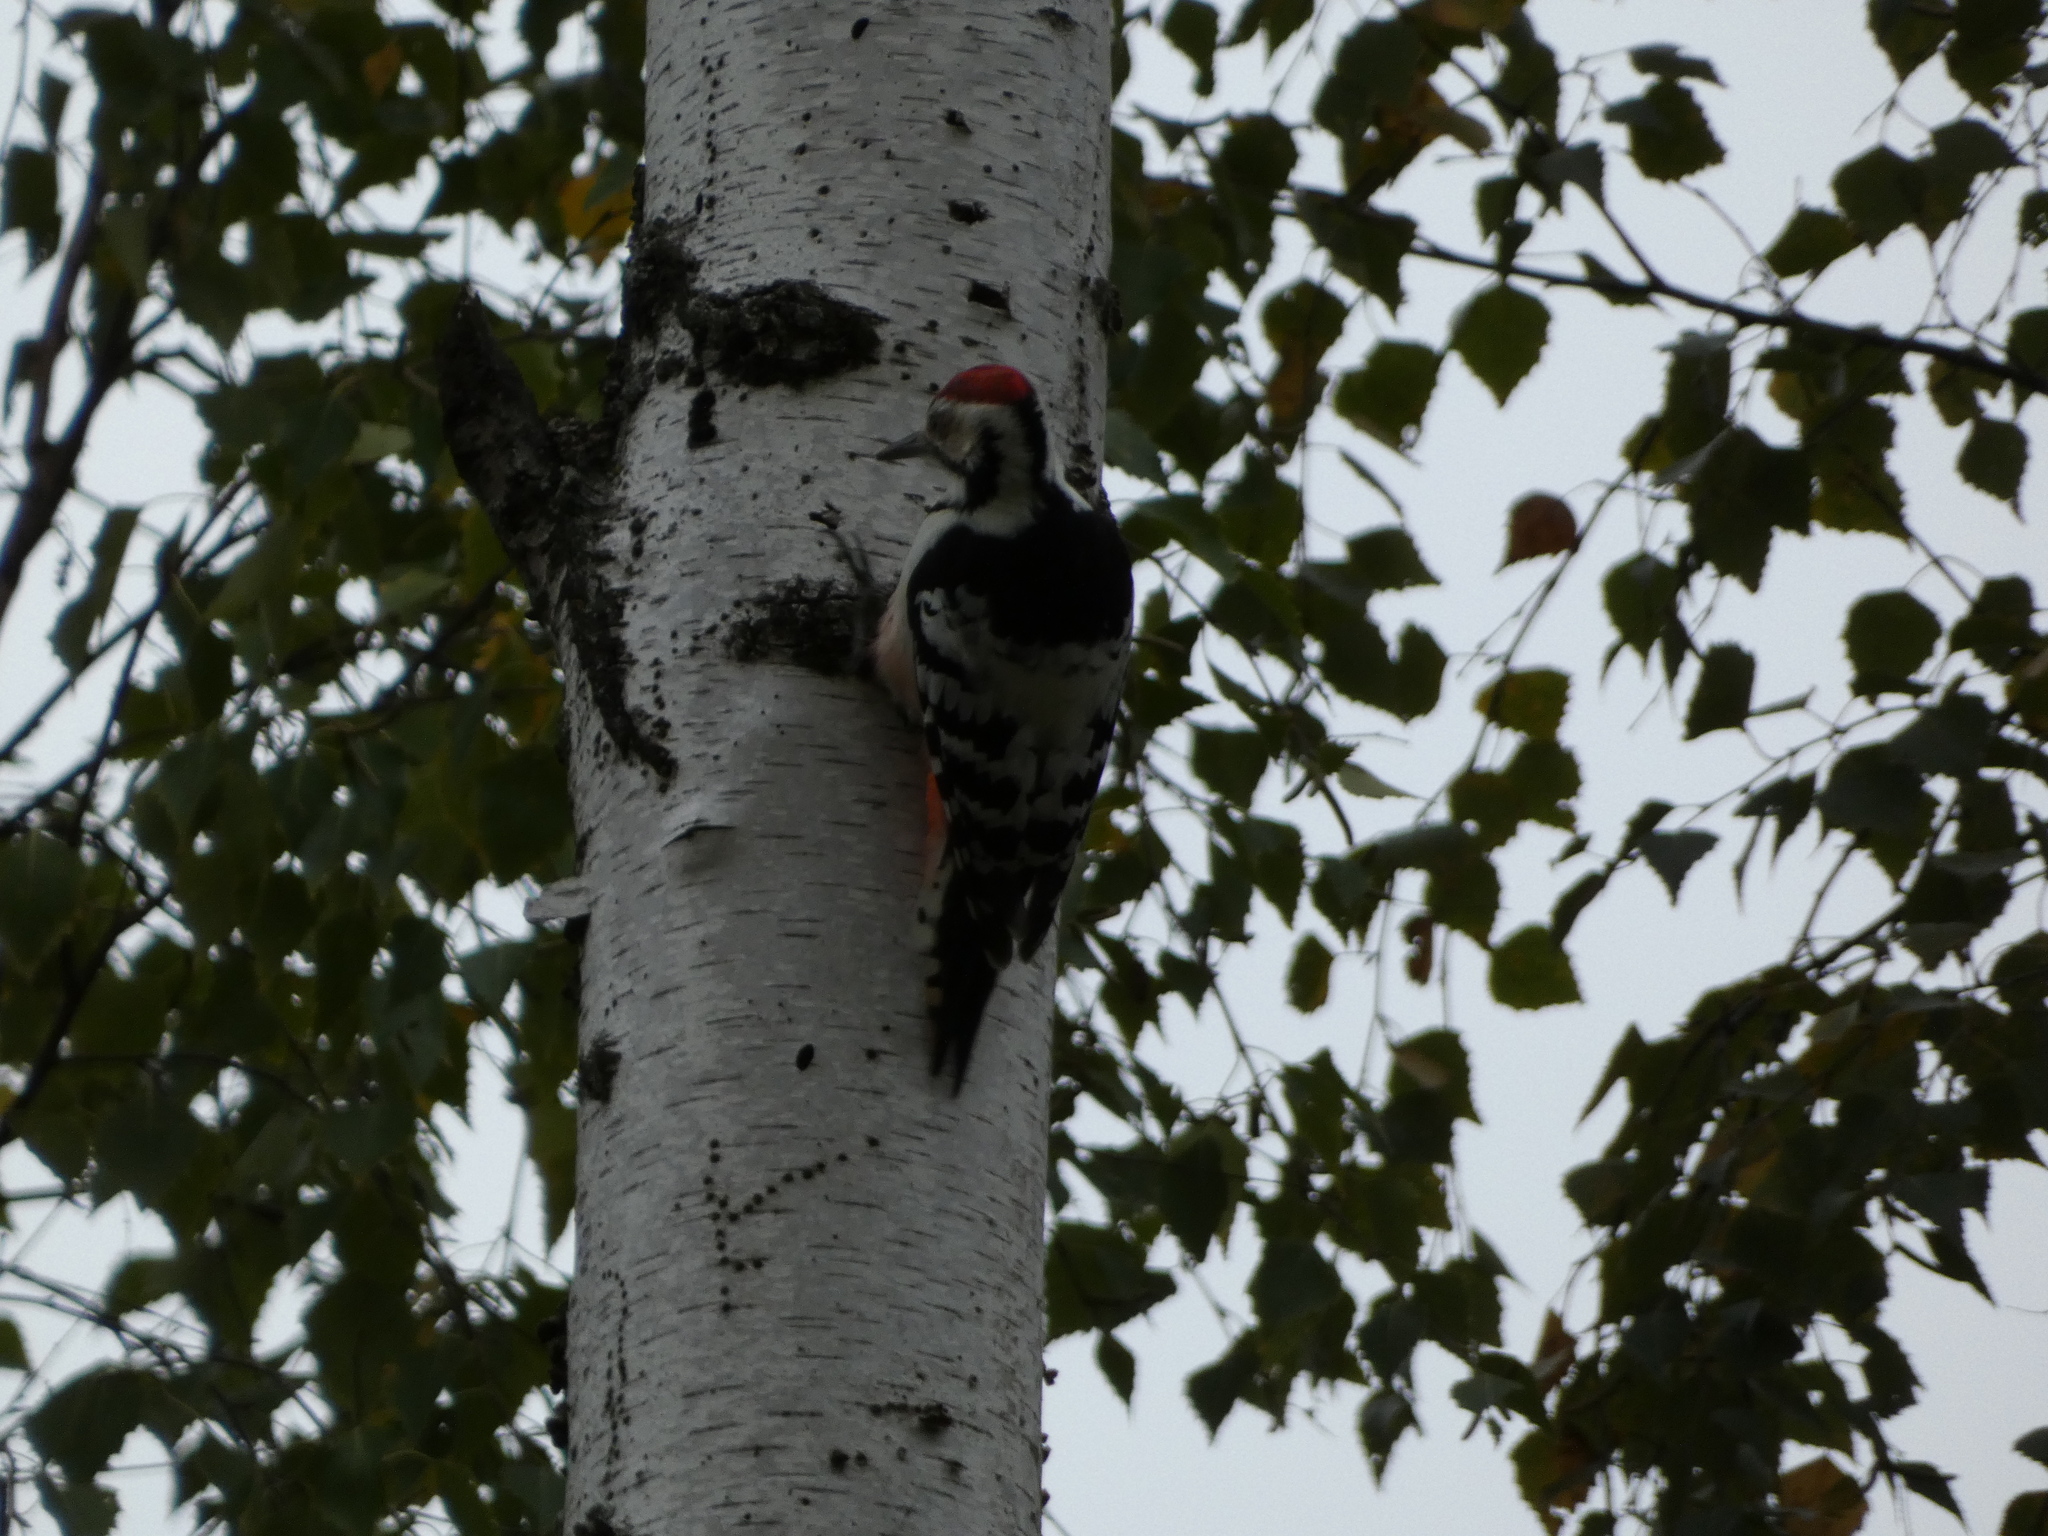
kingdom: Animalia
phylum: Chordata
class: Aves
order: Piciformes
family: Picidae
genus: Dendrocopos
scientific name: Dendrocopos leucotos
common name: White-backed woodpecker
